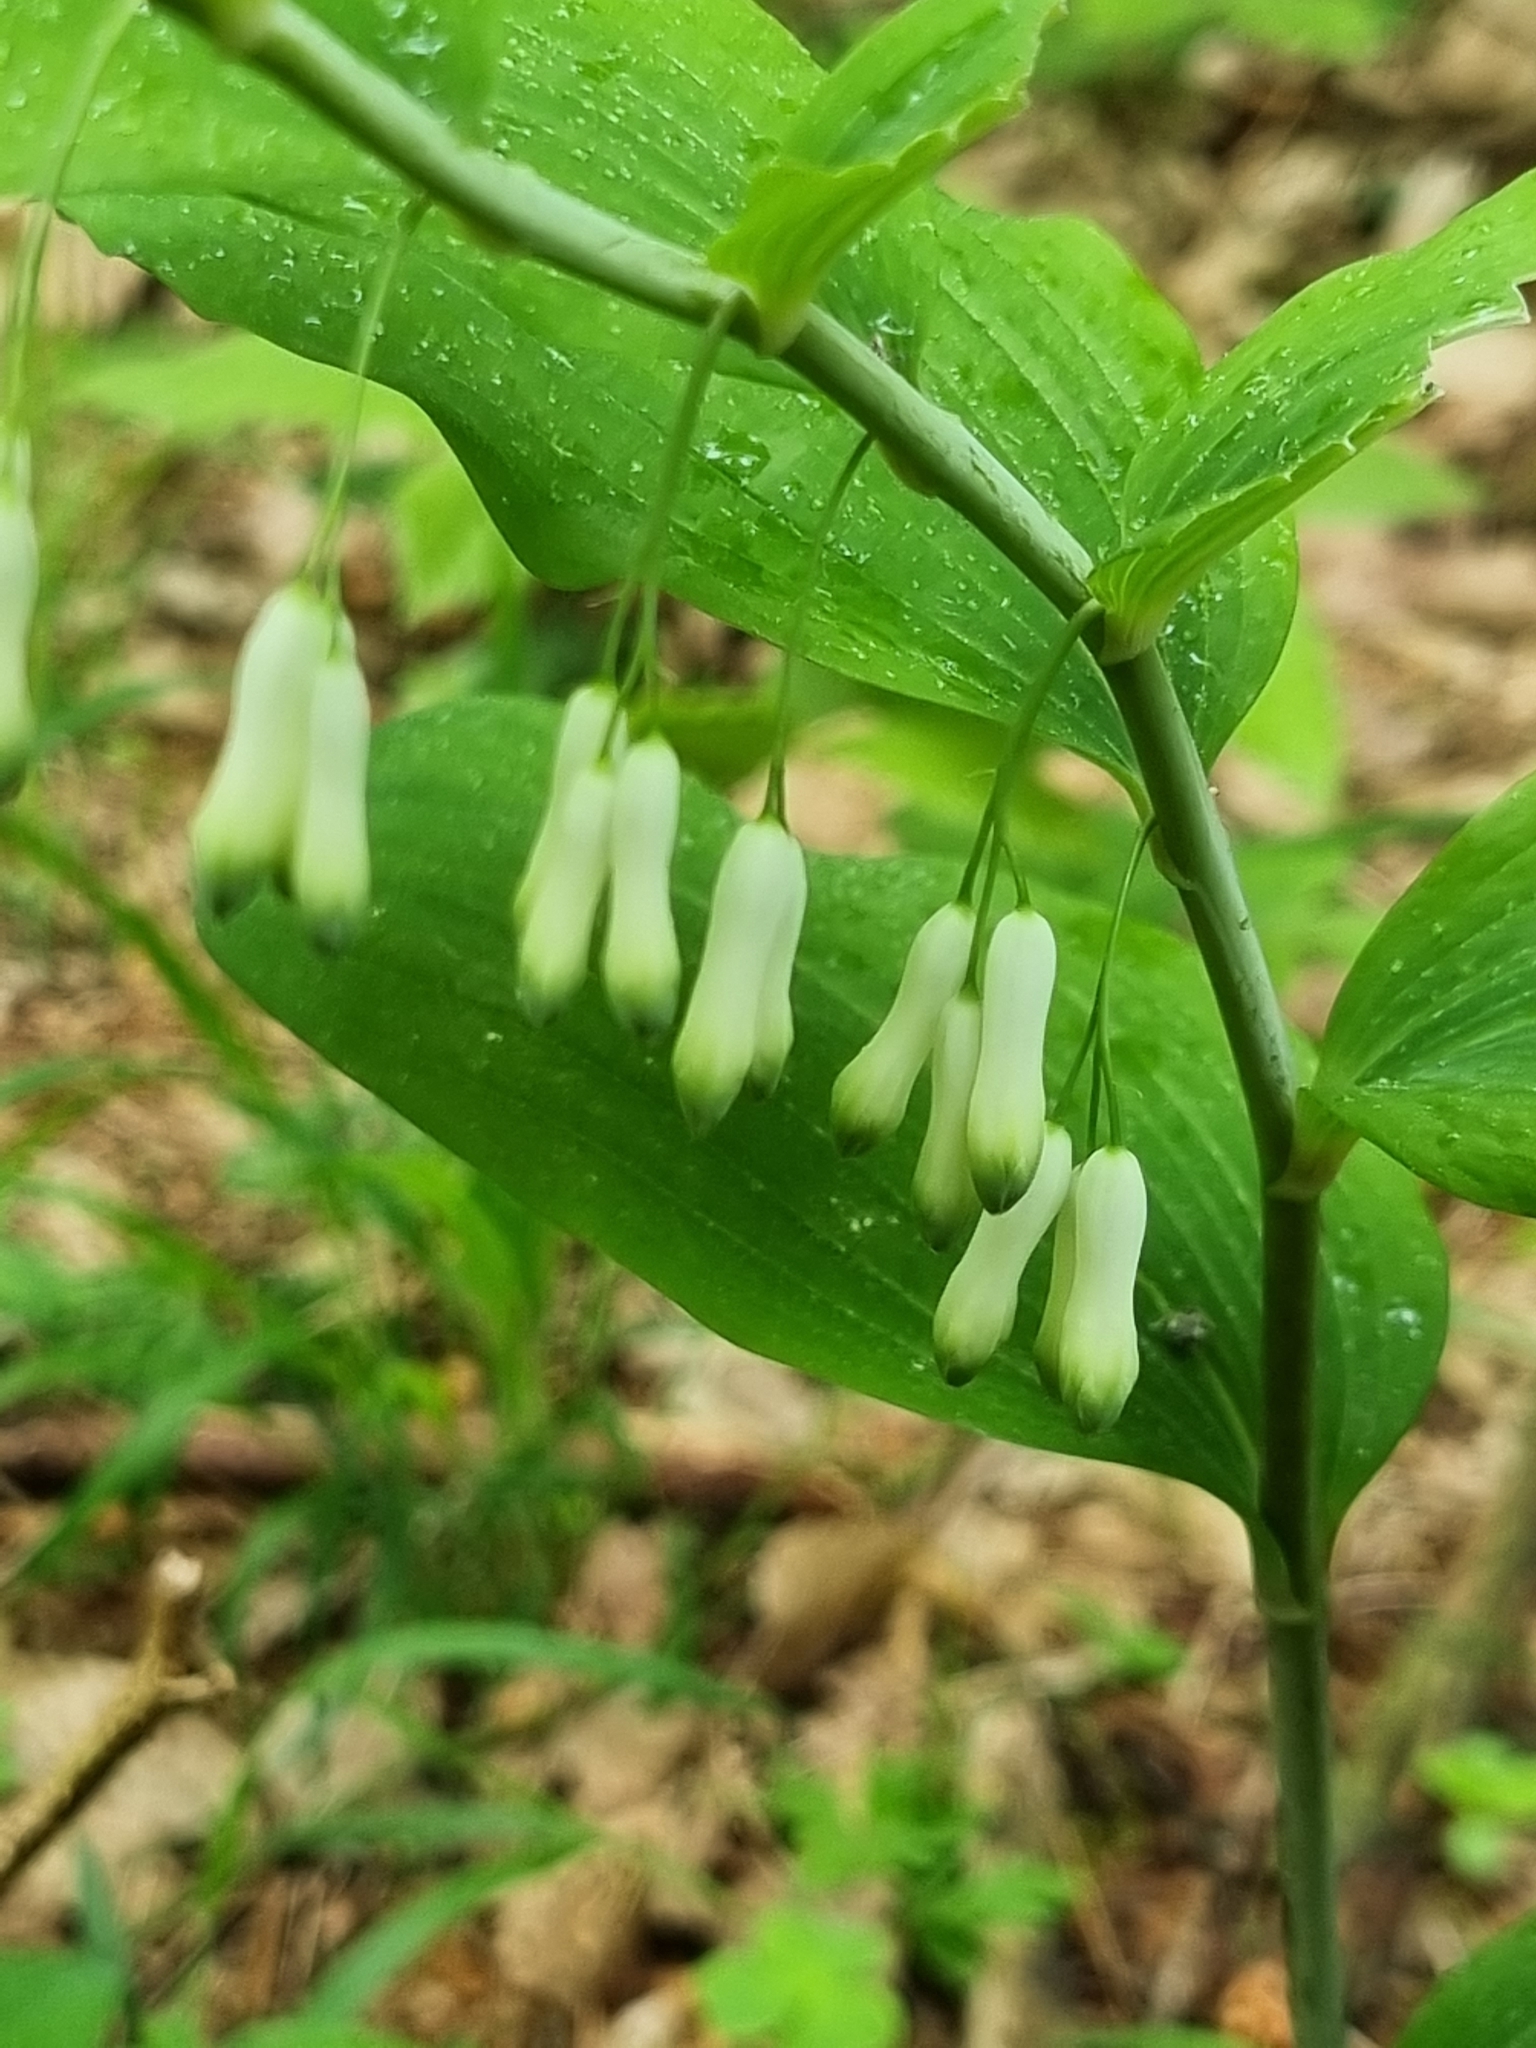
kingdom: Plantae
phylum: Tracheophyta
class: Liliopsida
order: Asparagales
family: Asparagaceae
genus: Polygonatum
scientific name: Polygonatum multiflorum
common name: Solomon's-seal
